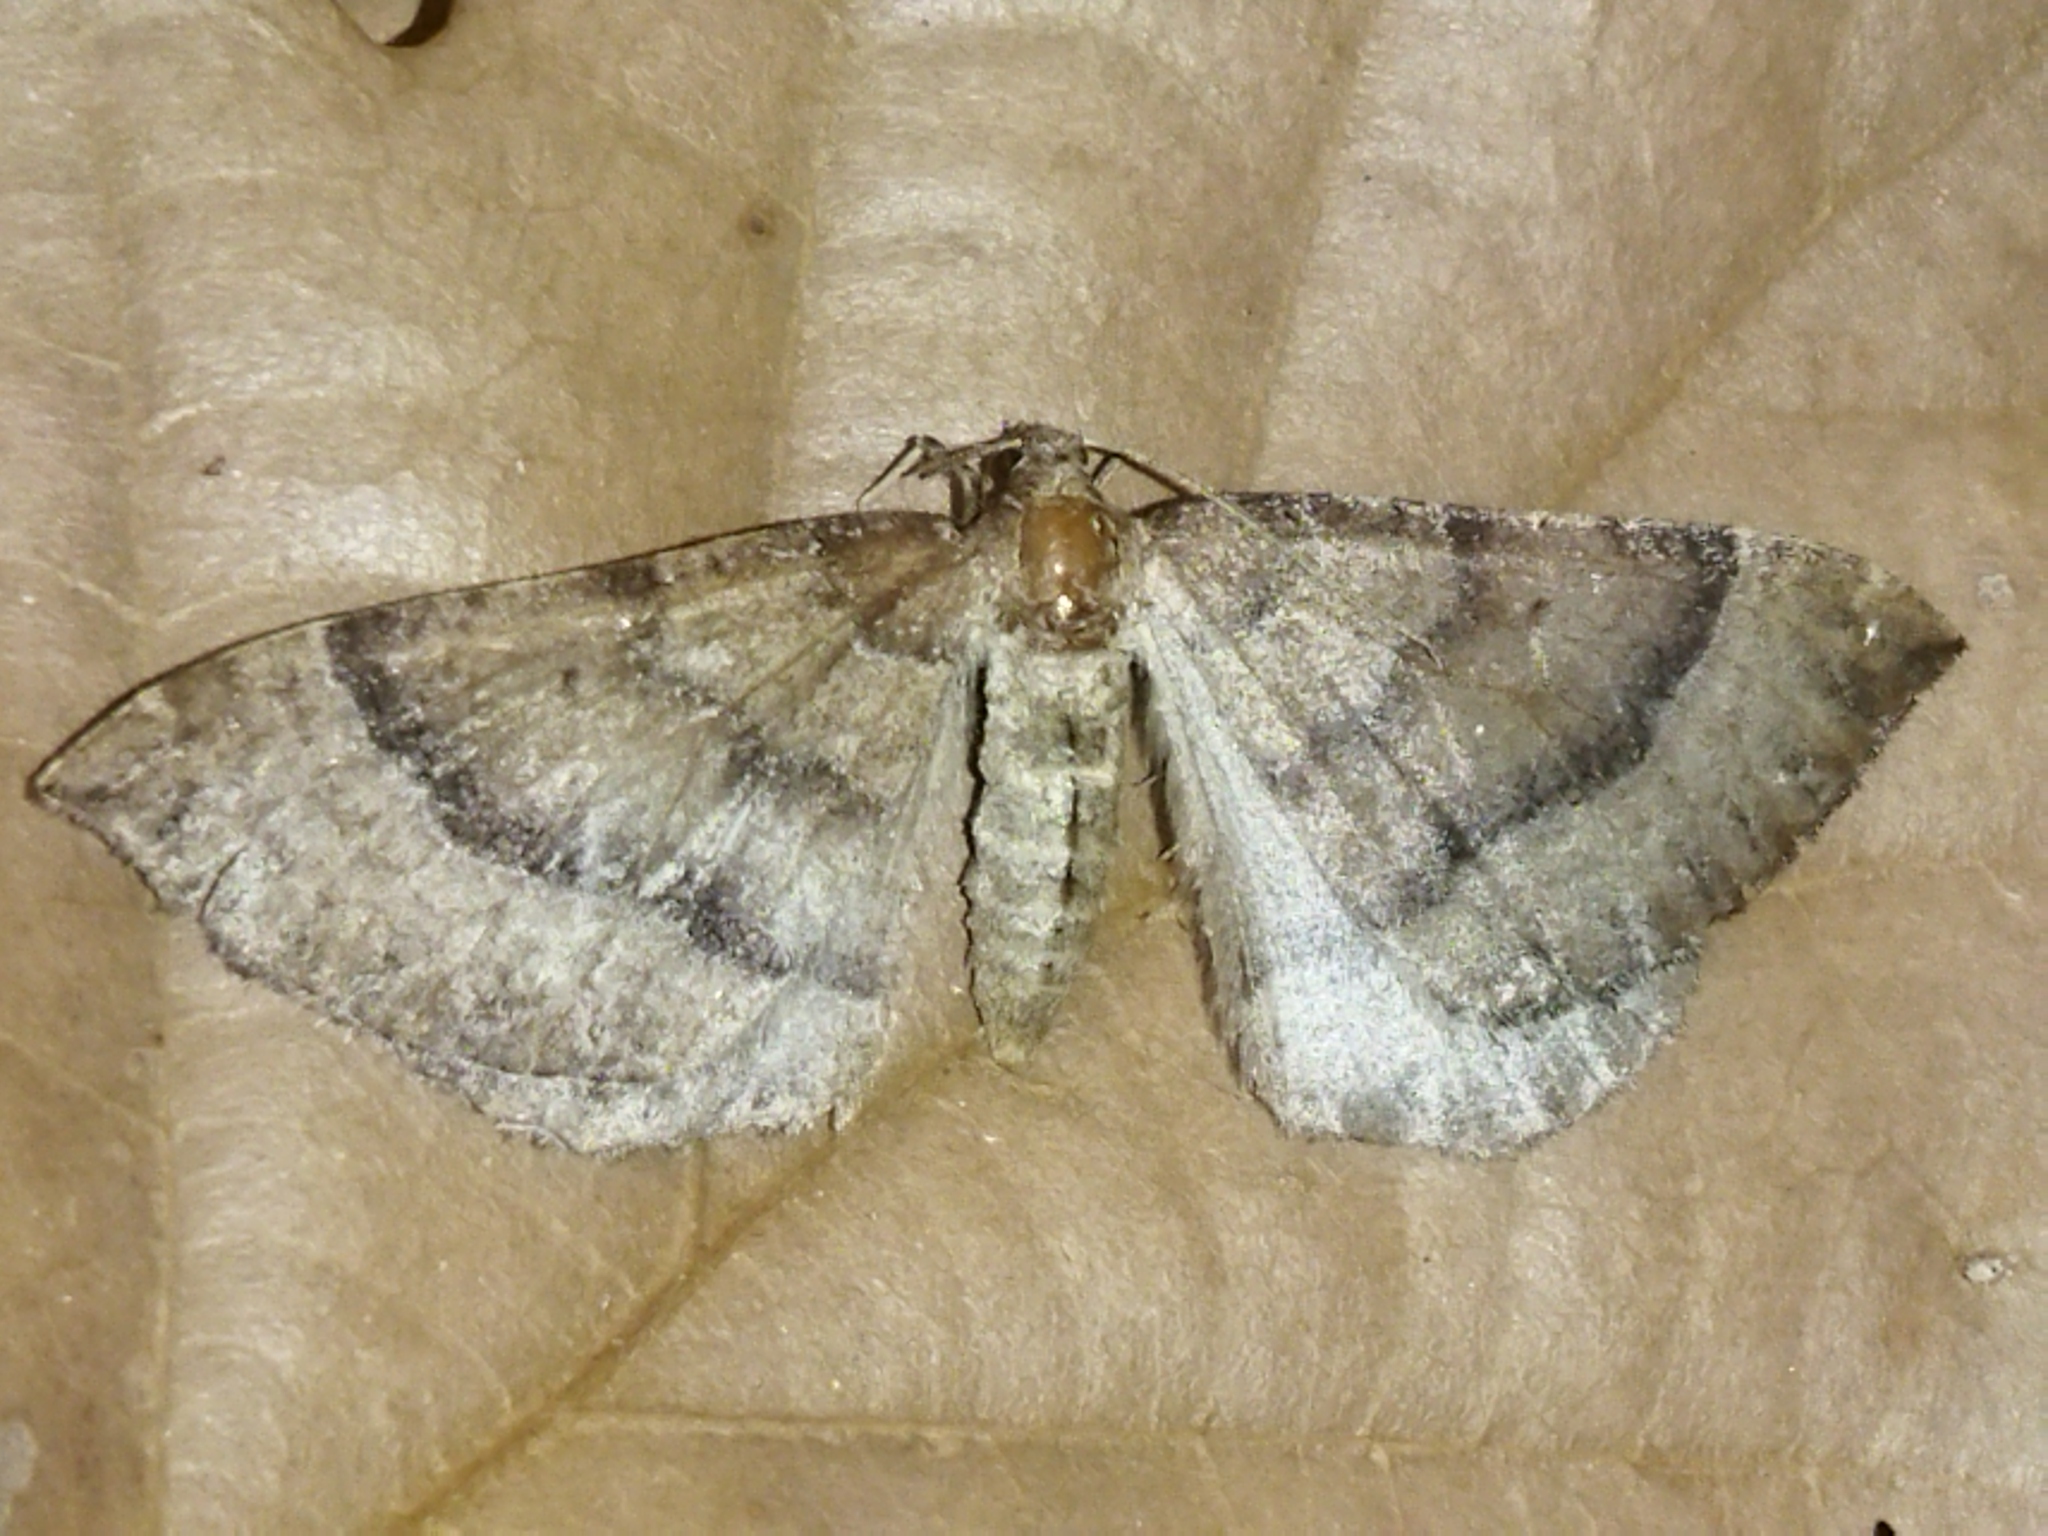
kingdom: Animalia
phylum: Arthropoda
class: Insecta
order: Lepidoptera
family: Geometridae
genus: Larentia
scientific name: Larentia clavaria
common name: Mallow
